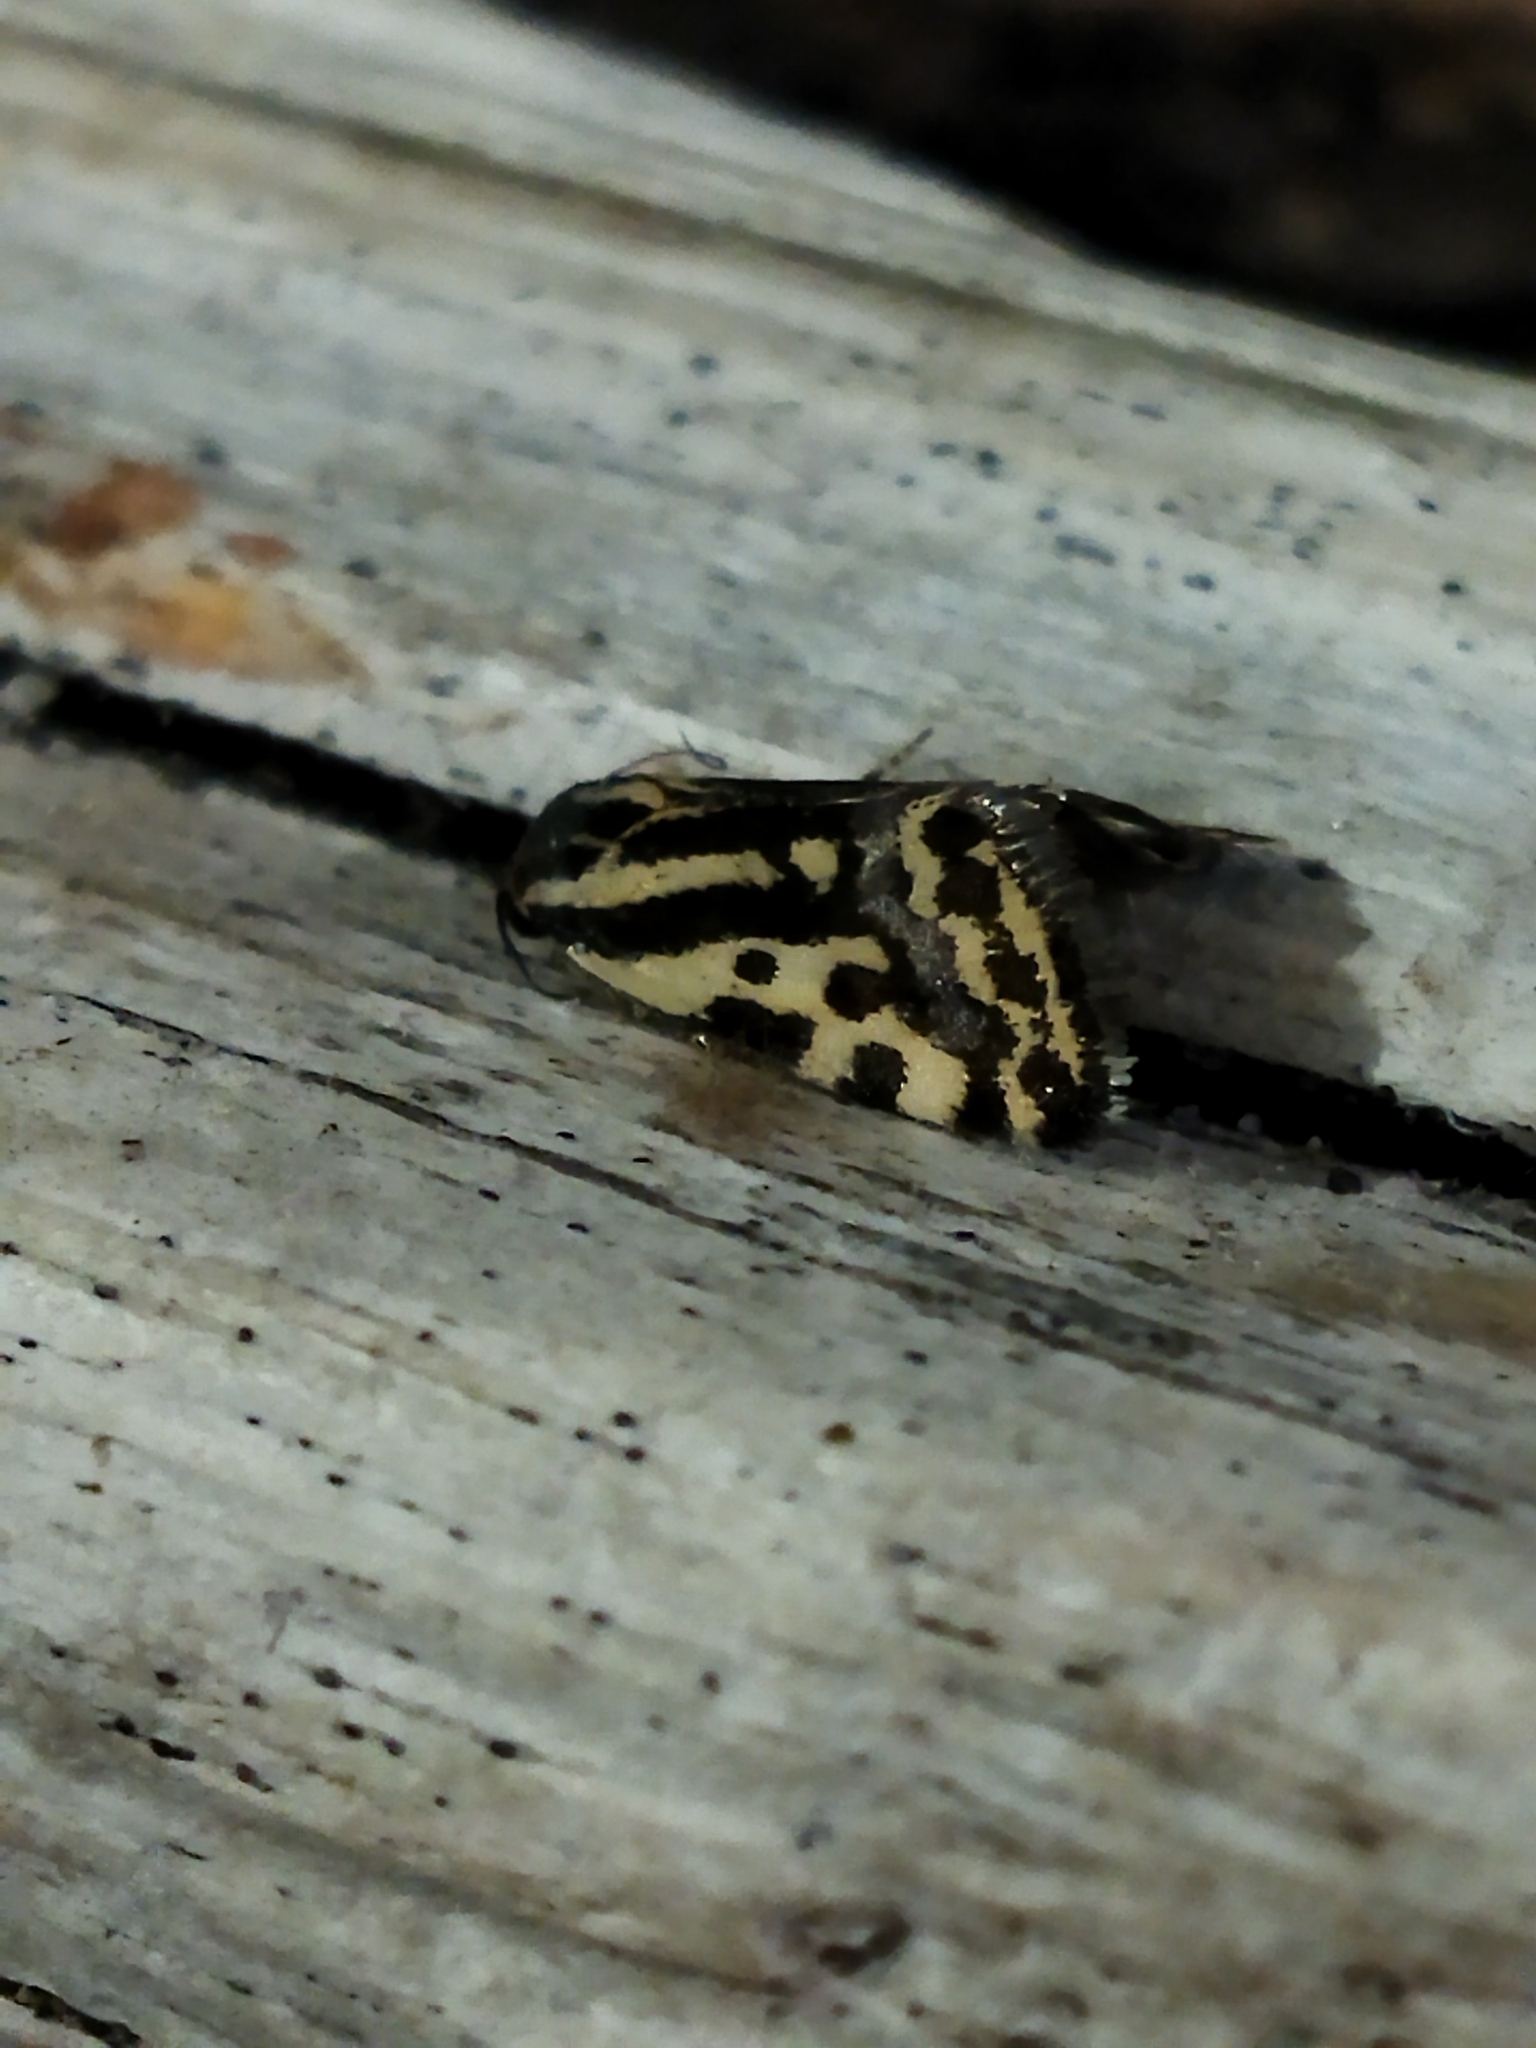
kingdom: Animalia
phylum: Arthropoda
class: Insecta
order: Lepidoptera
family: Noctuidae
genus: Acontia
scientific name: Acontia trabealis
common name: Spotted sulphur
